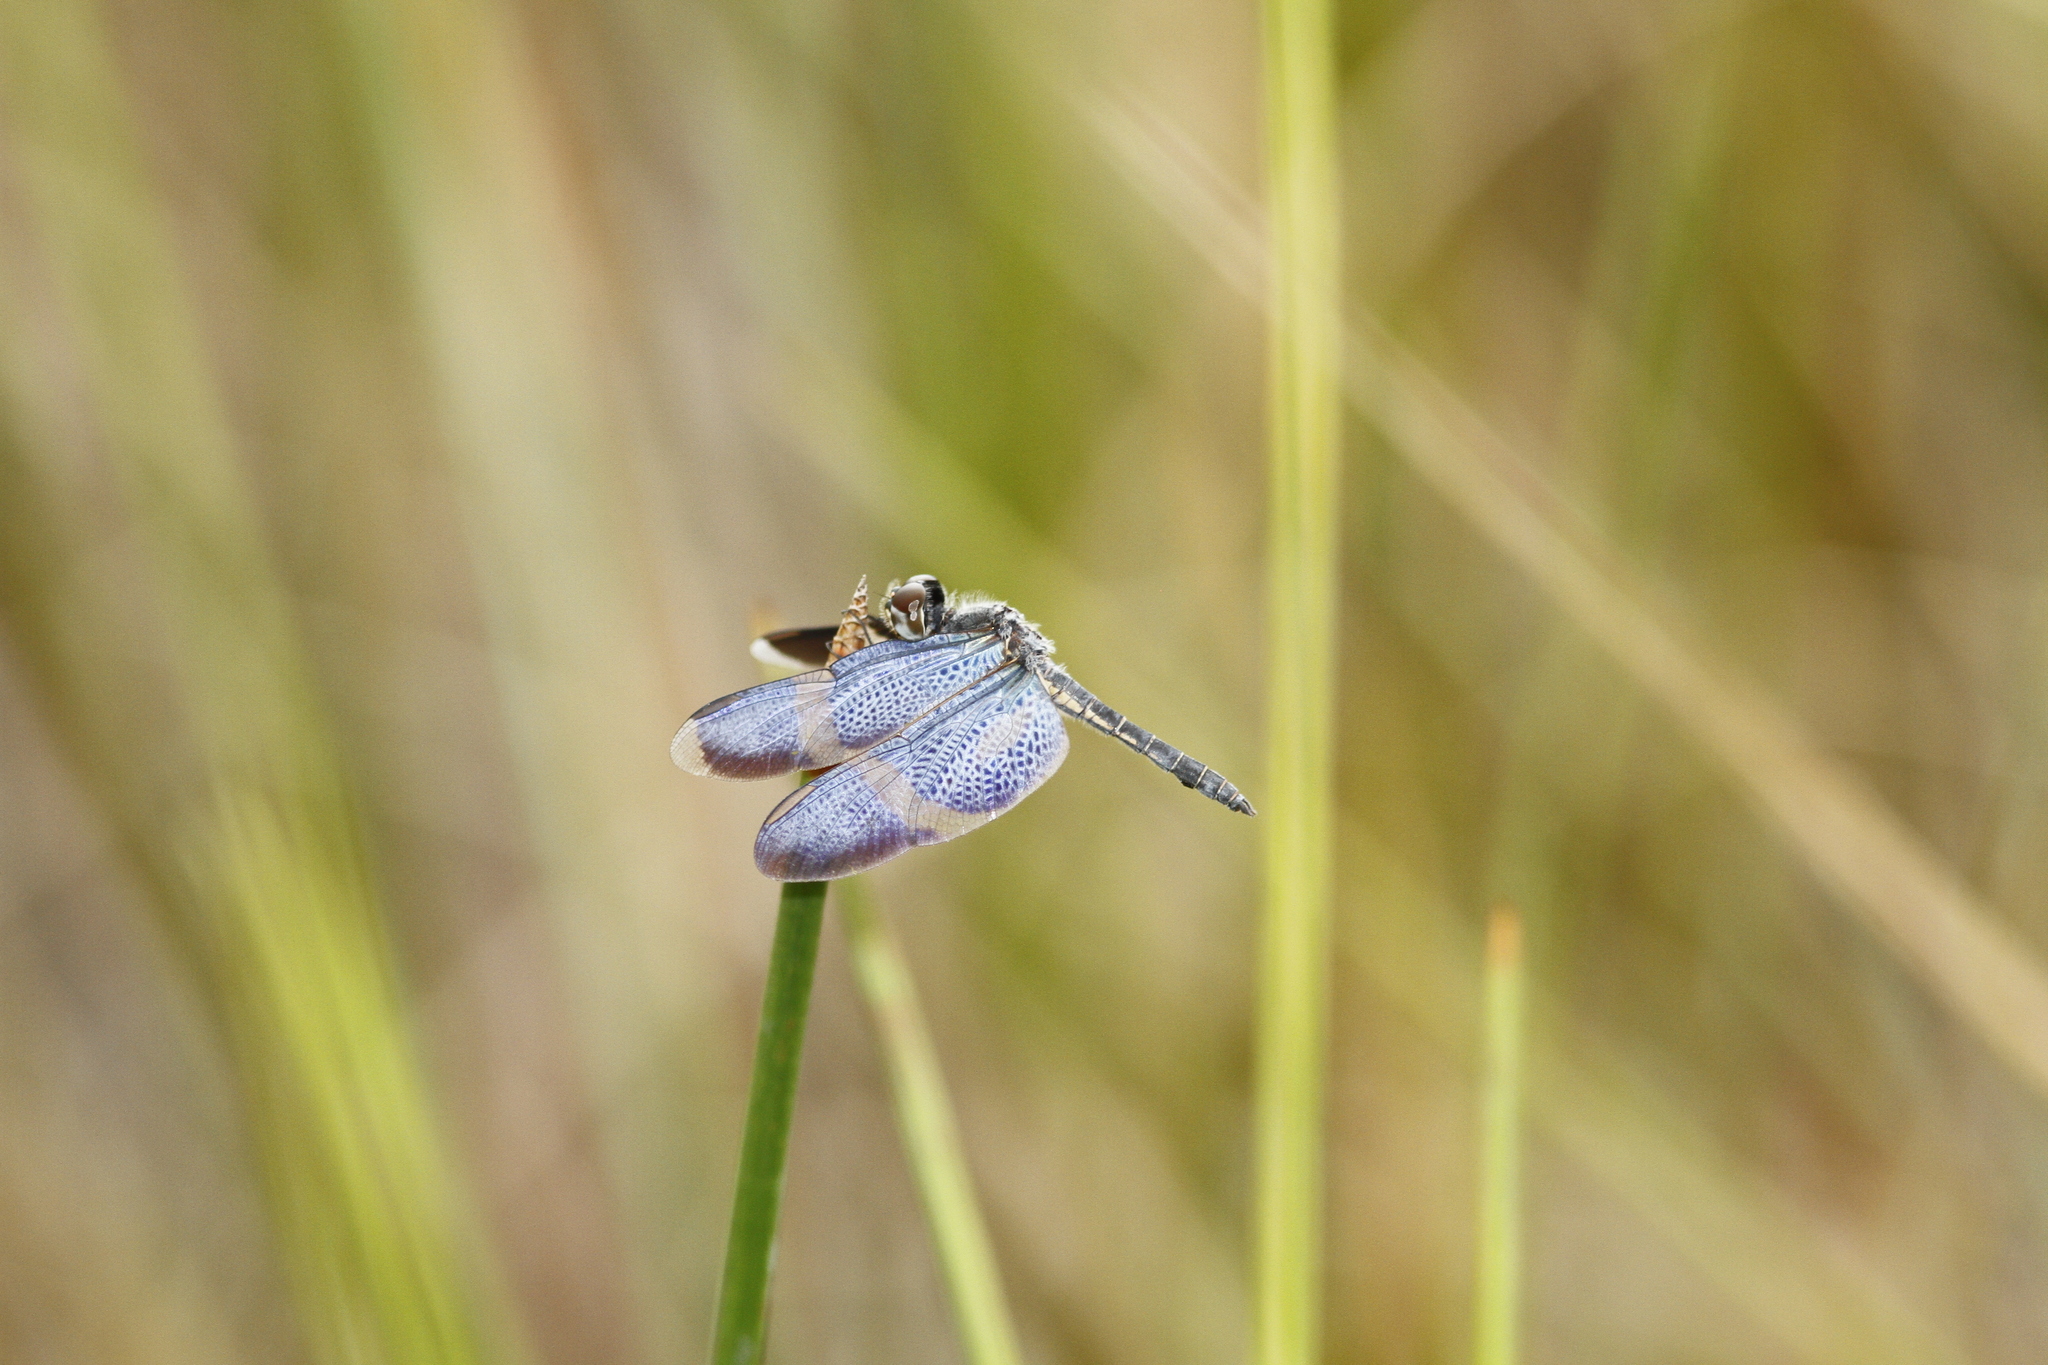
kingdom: Animalia
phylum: Arthropoda
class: Insecta
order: Odonata
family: Libellulidae
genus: Zenithoptera
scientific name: Zenithoptera viola
